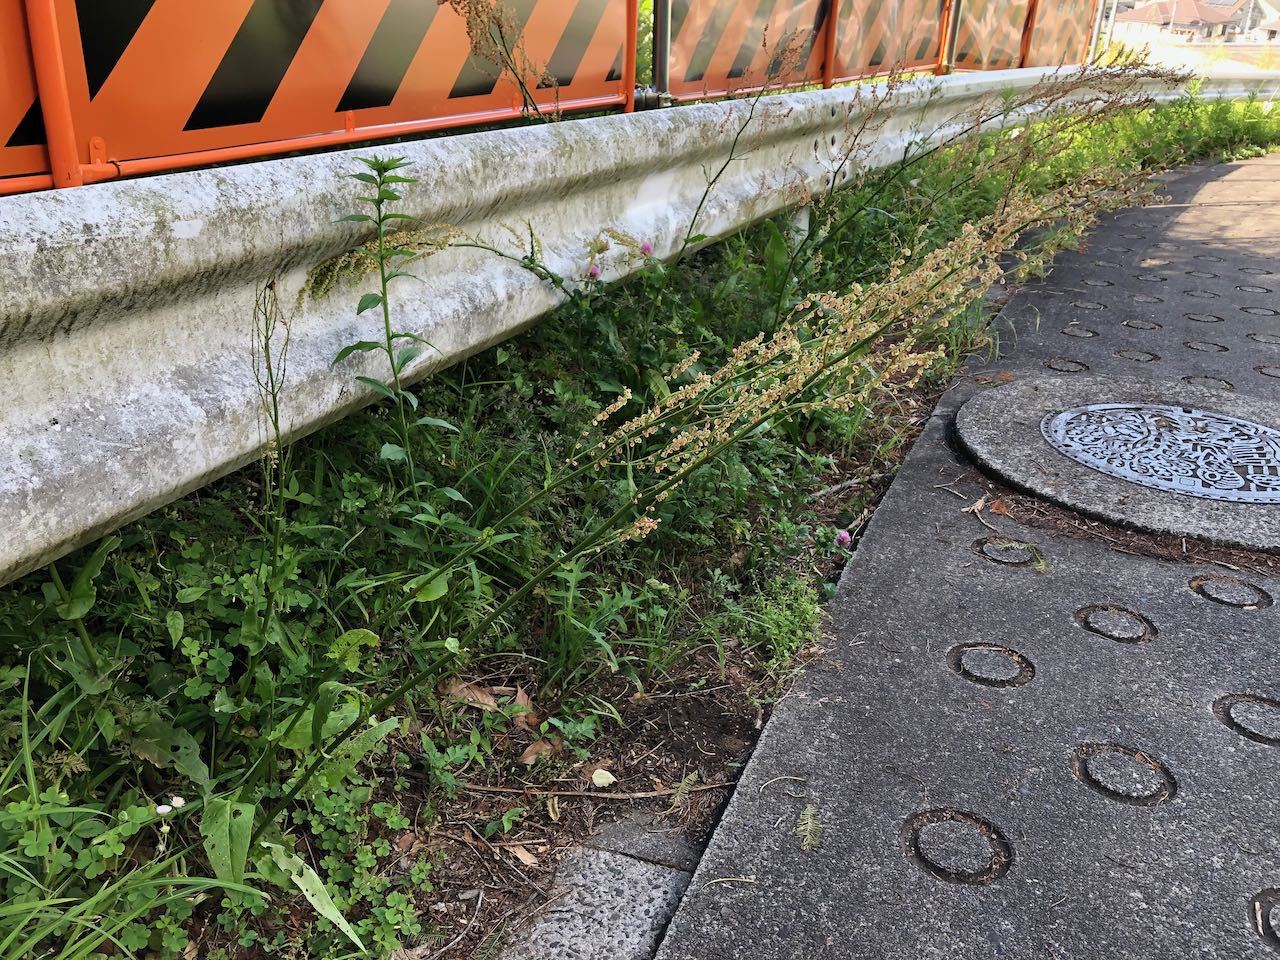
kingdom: Plantae
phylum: Tracheophyta
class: Magnoliopsida
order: Caryophyllales
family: Polygonaceae
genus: Rumex
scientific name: Rumex acetosa
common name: Garden sorrel
